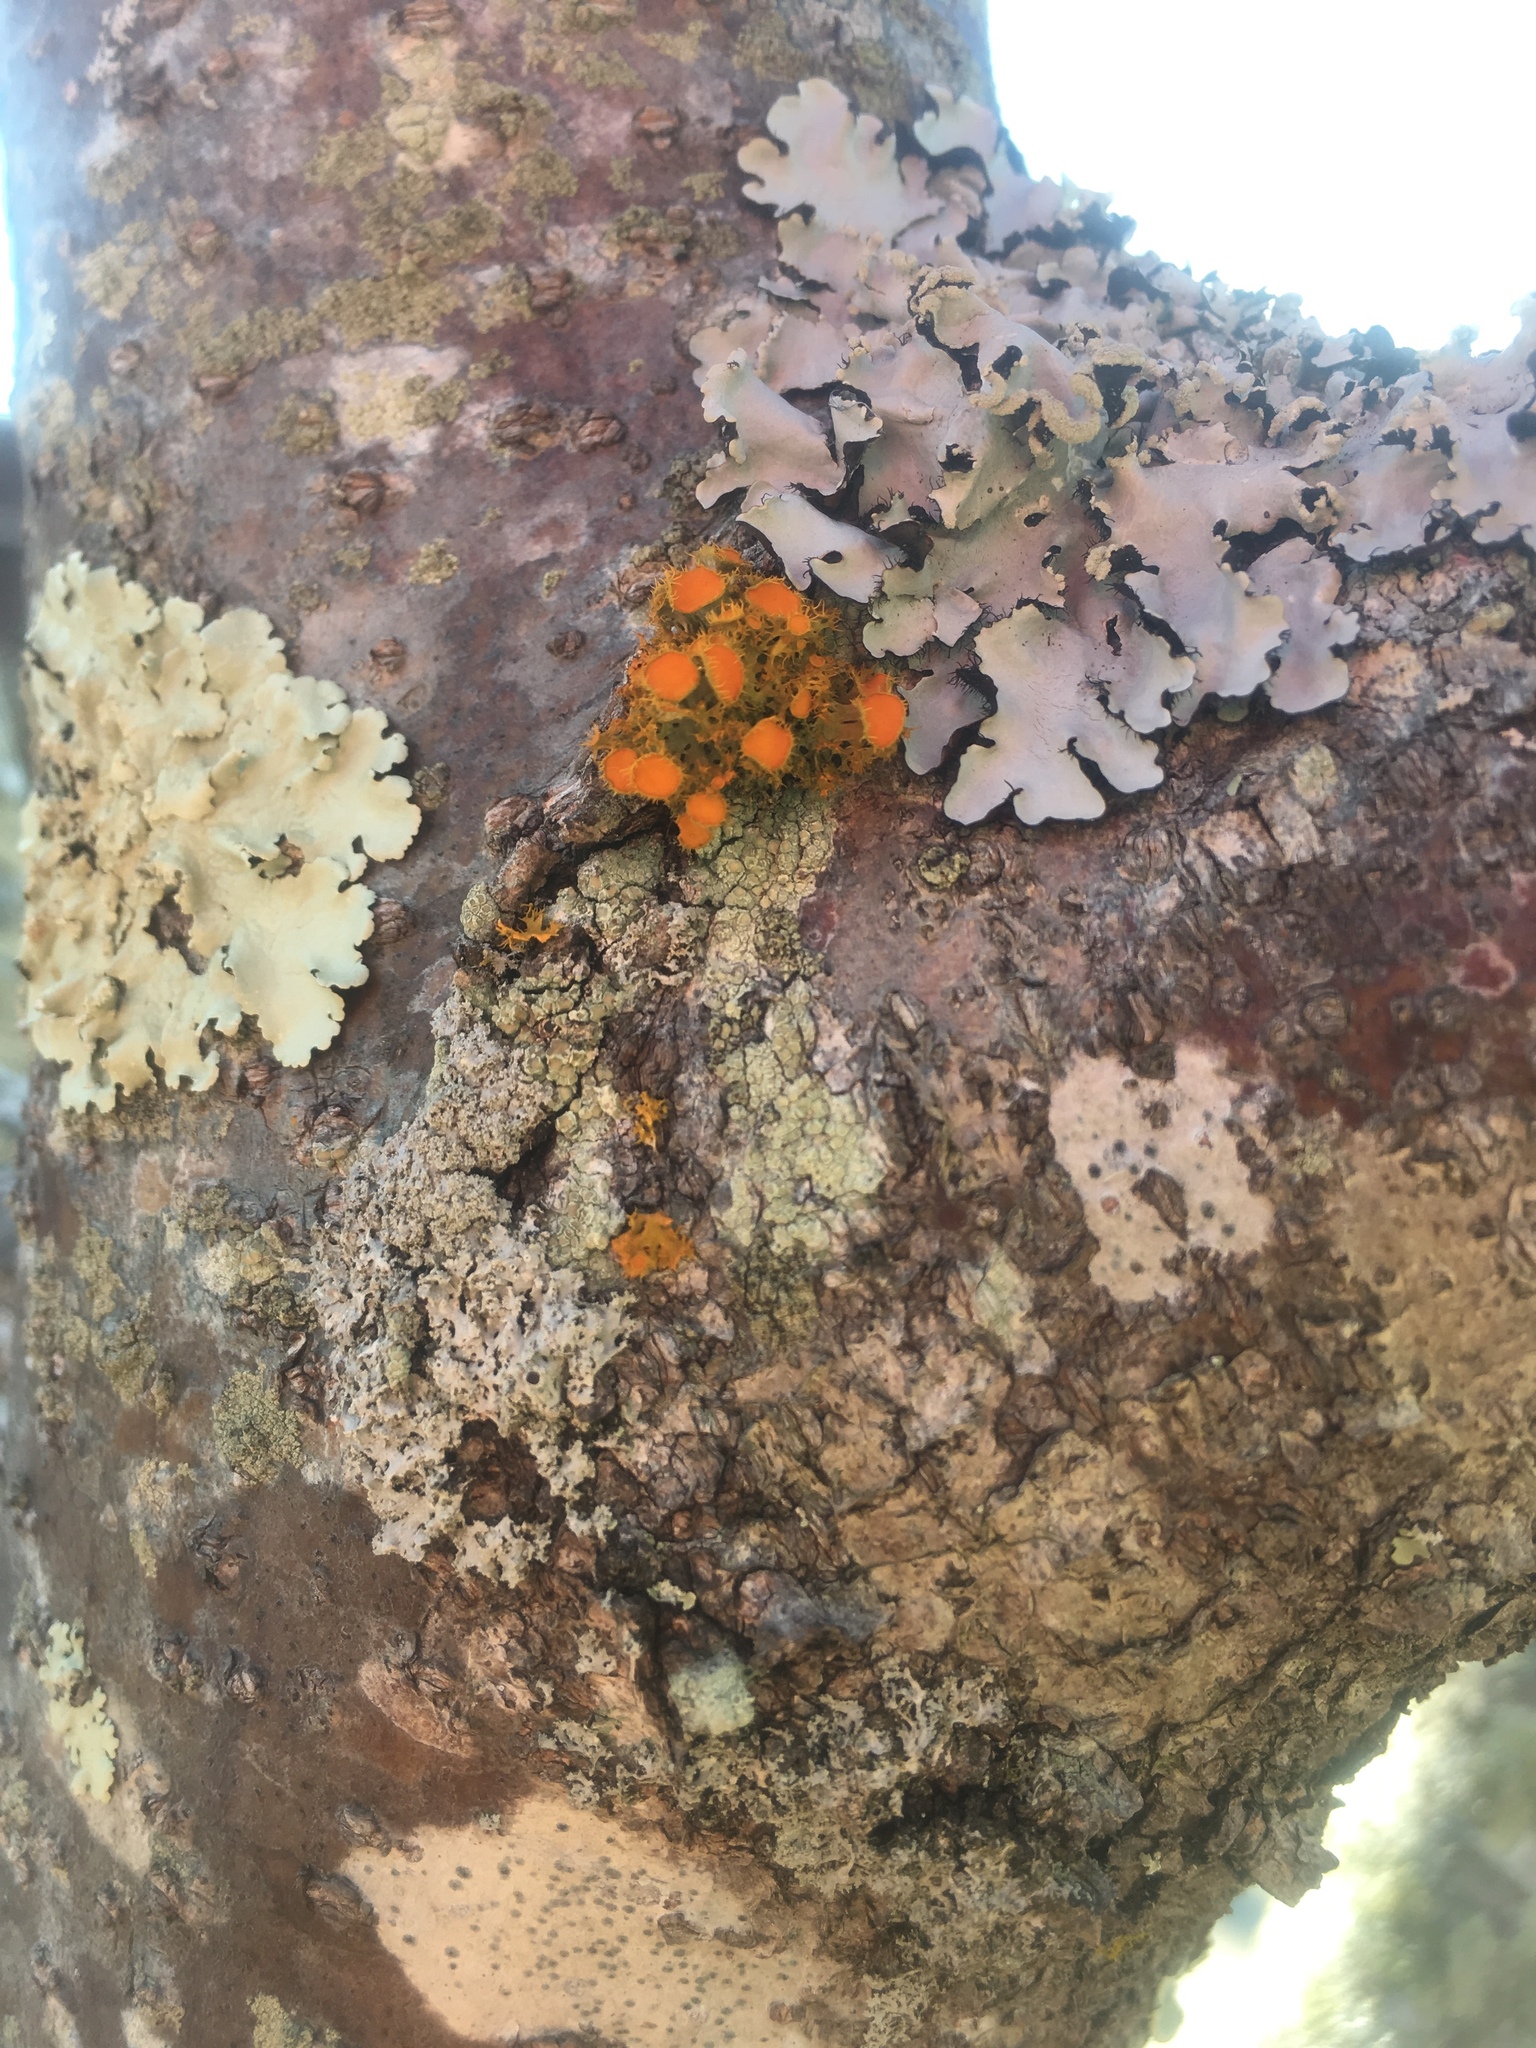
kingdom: Fungi
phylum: Ascomycota
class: Lecanoromycetes
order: Teloschistales
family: Teloschistaceae
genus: Niorma
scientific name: Niorma chrysophthalma
